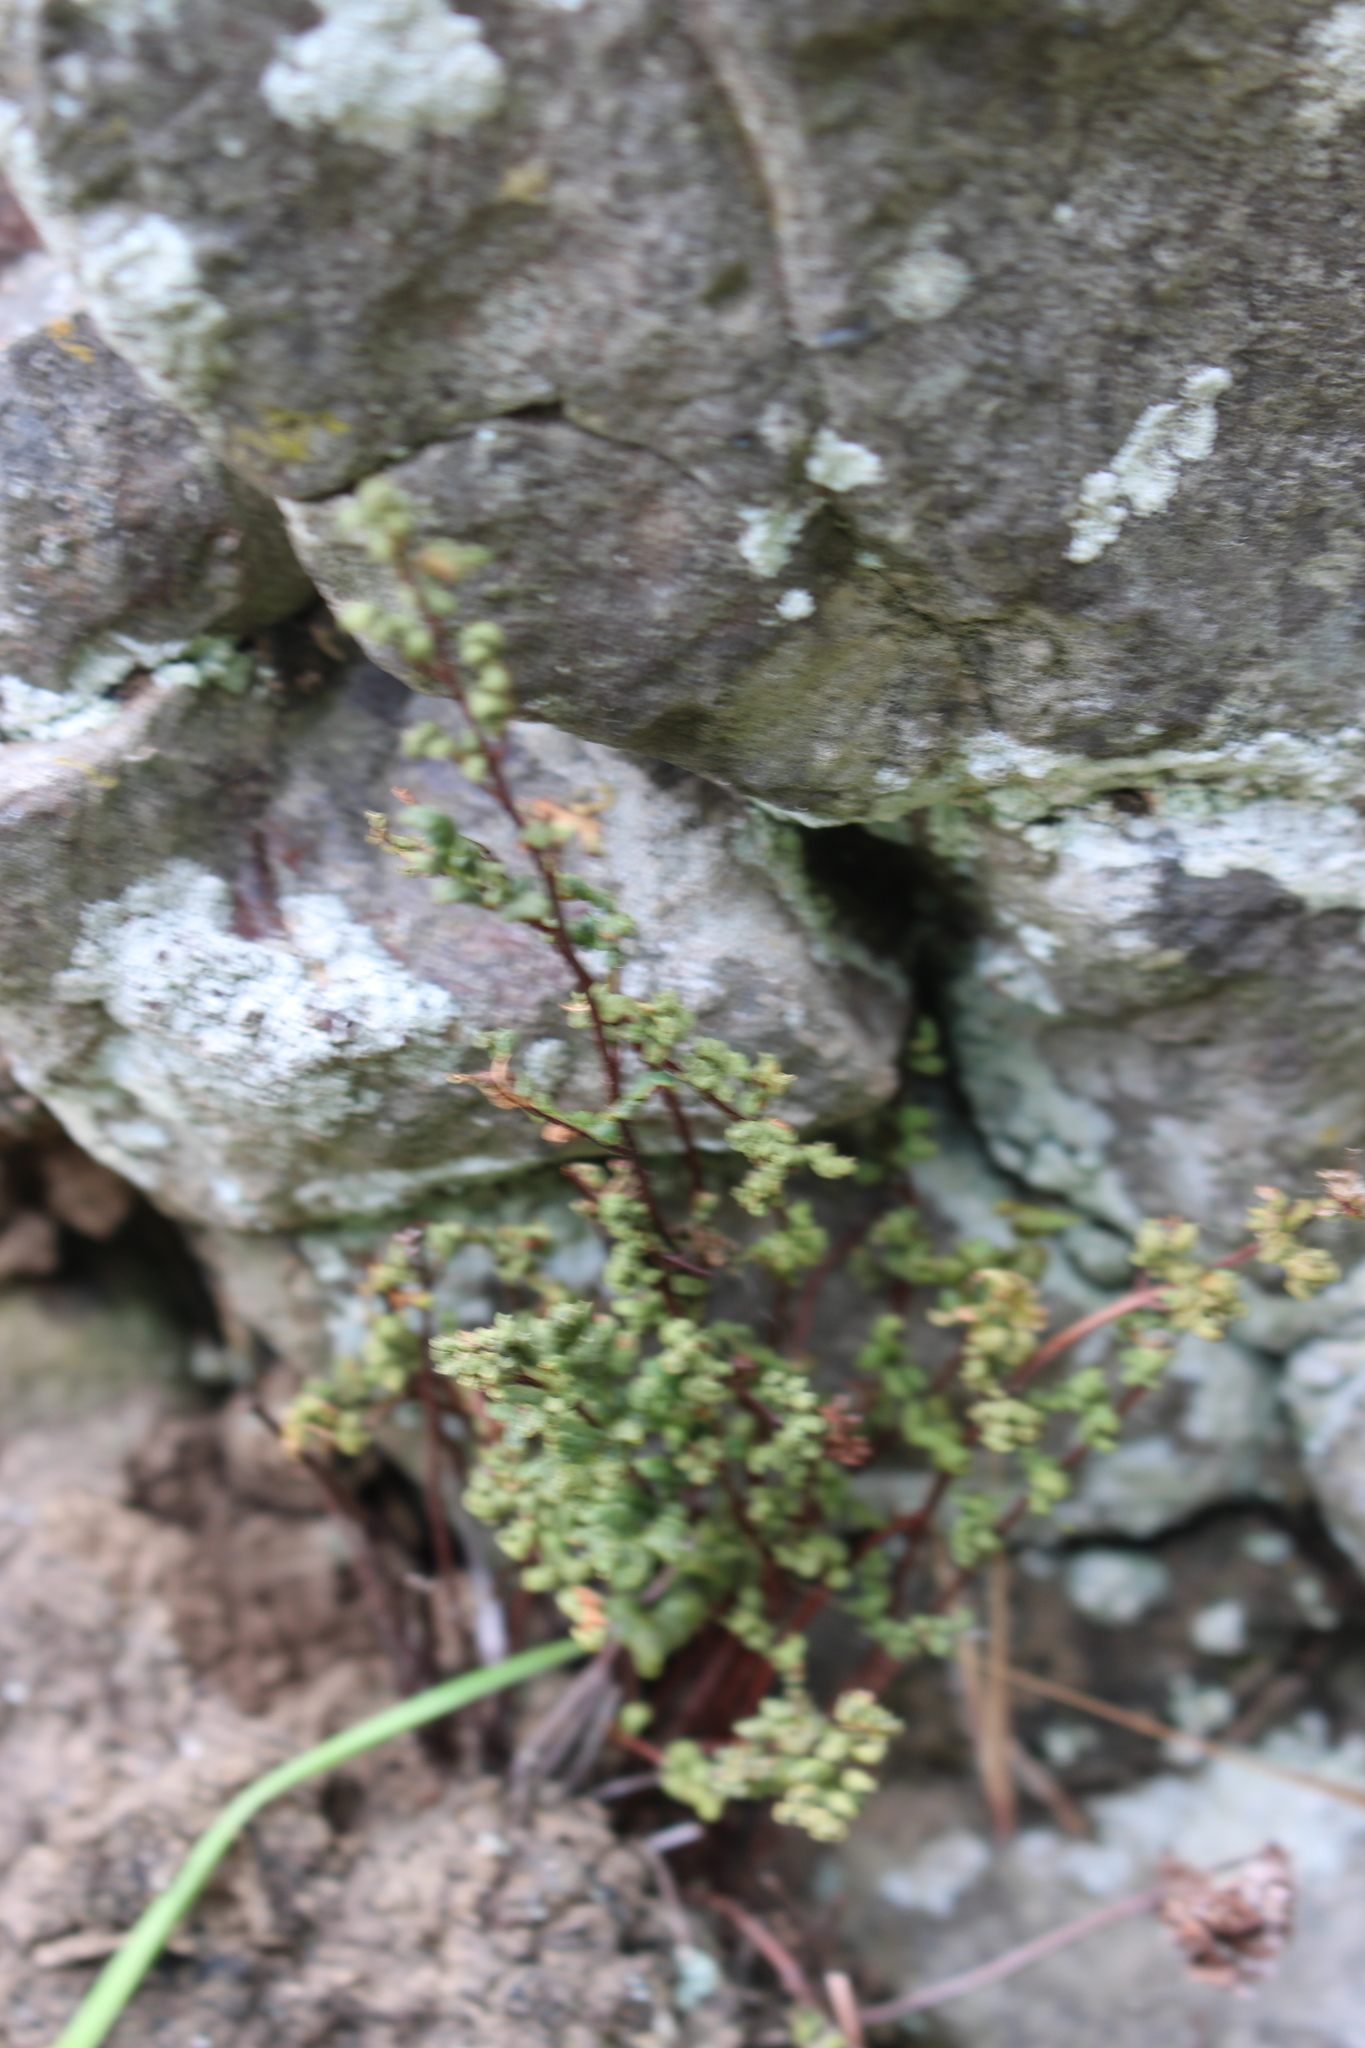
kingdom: Plantae
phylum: Tracheophyta
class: Polypodiopsida
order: Polypodiales
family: Pteridaceae
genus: Cheilanthes
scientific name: Cheilanthes sieberi
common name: Mulga fern
